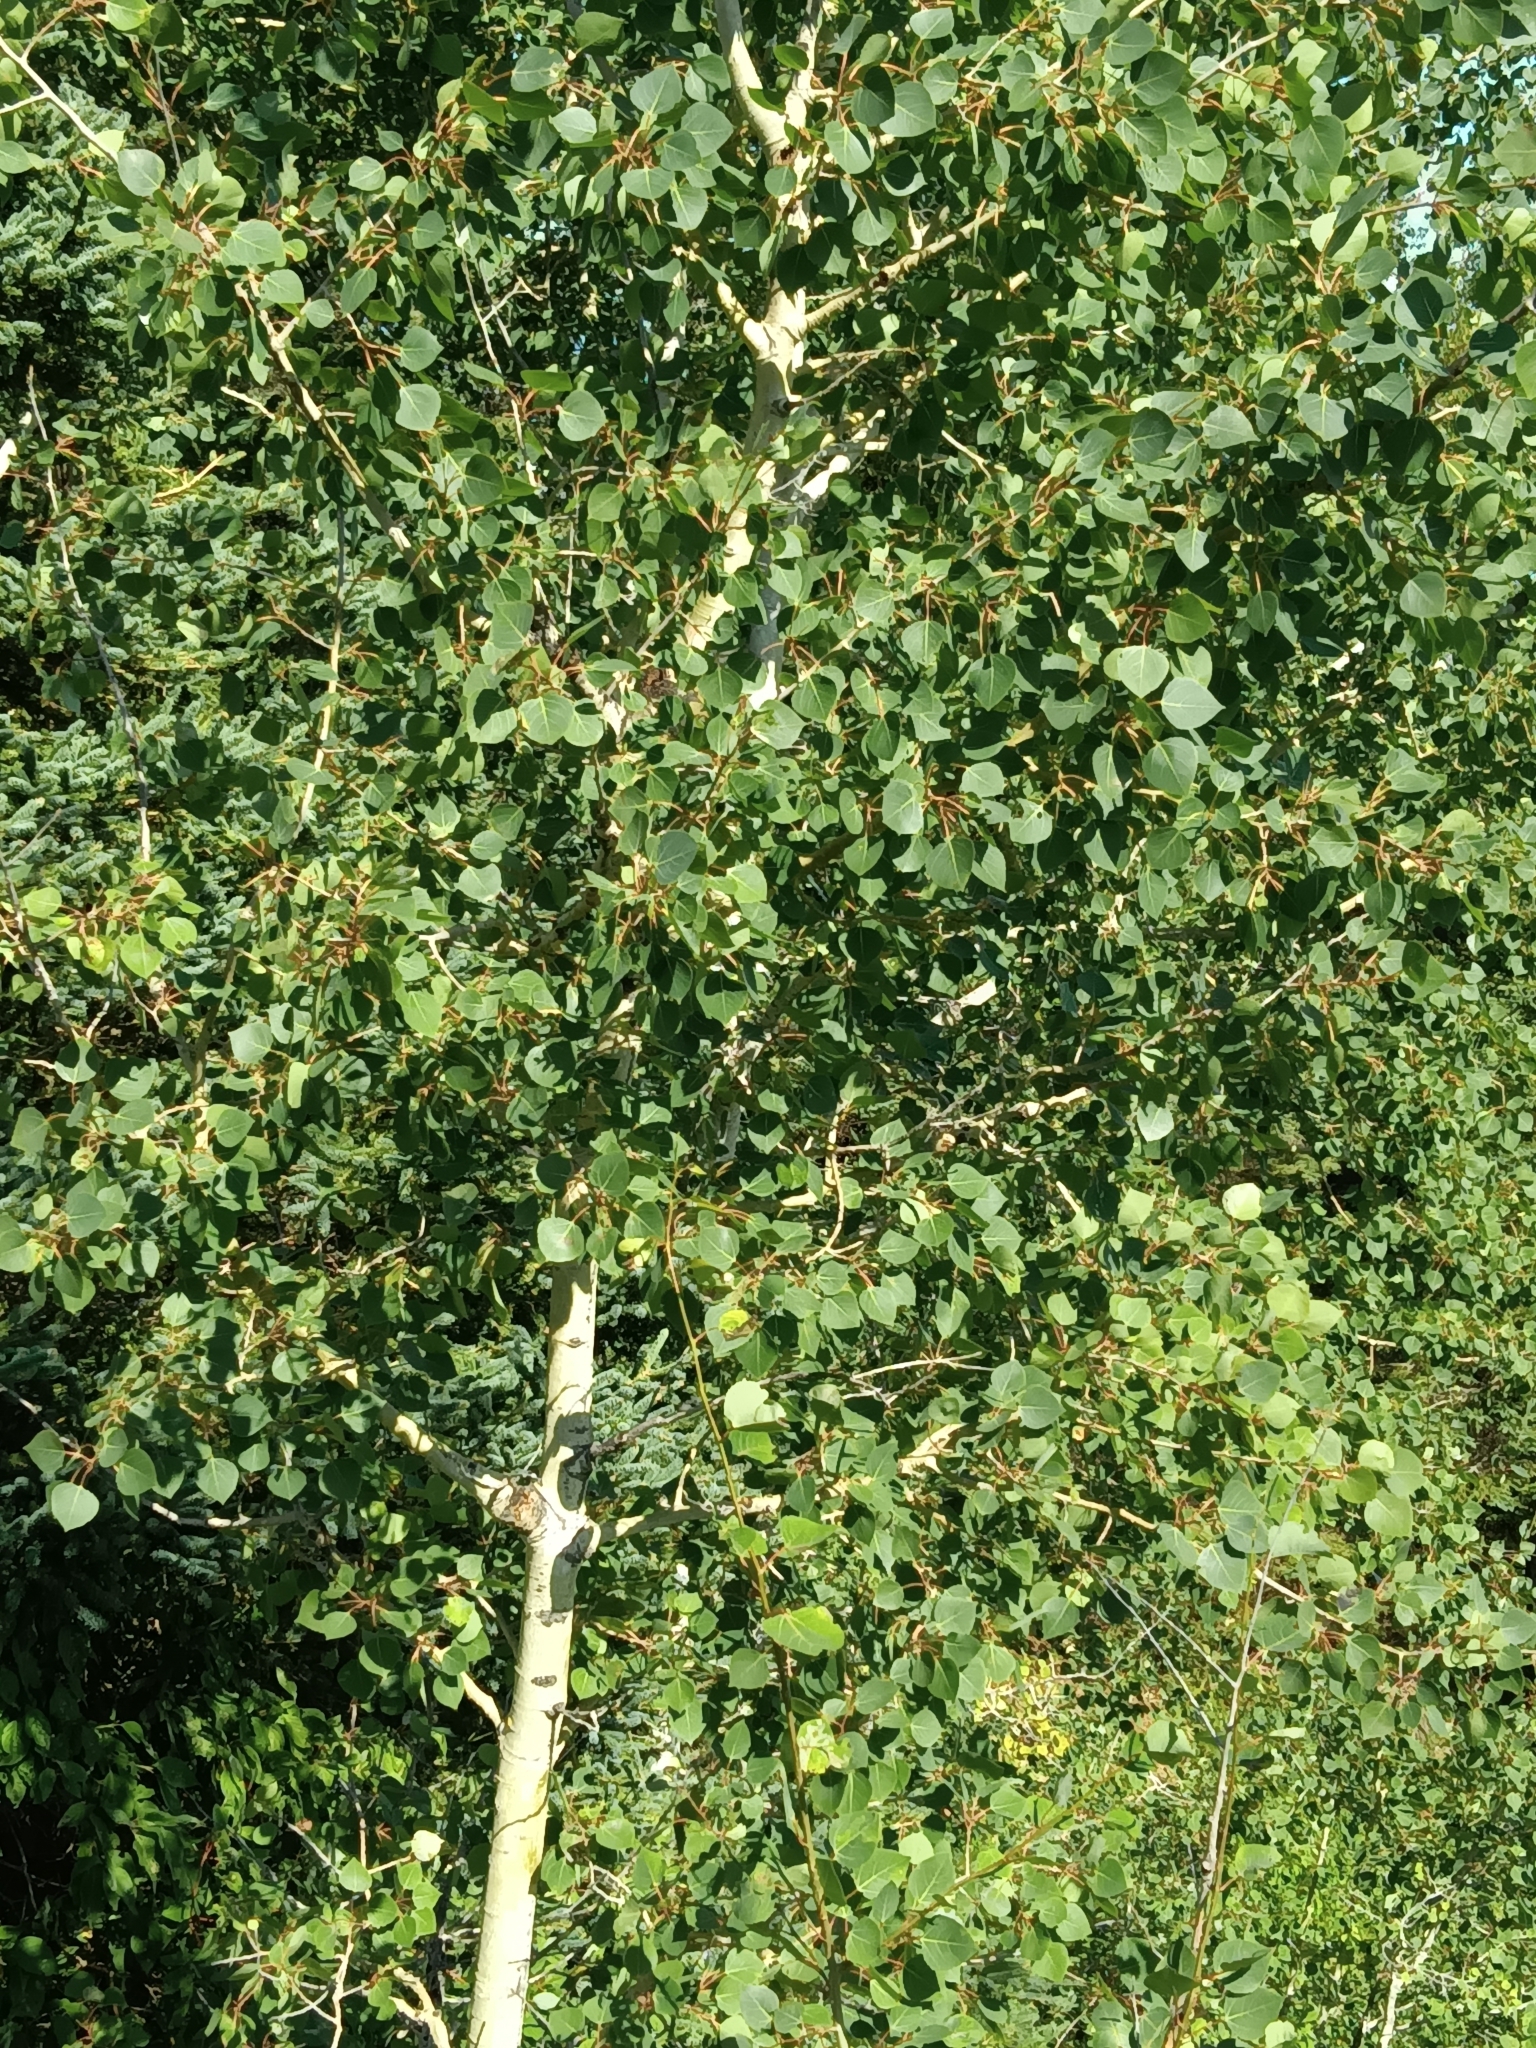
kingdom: Plantae
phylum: Tracheophyta
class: Magnoliopsida
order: Malpighiales
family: Salicaceae
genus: Populus
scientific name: Populus tremuloides
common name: Quaking aspen
